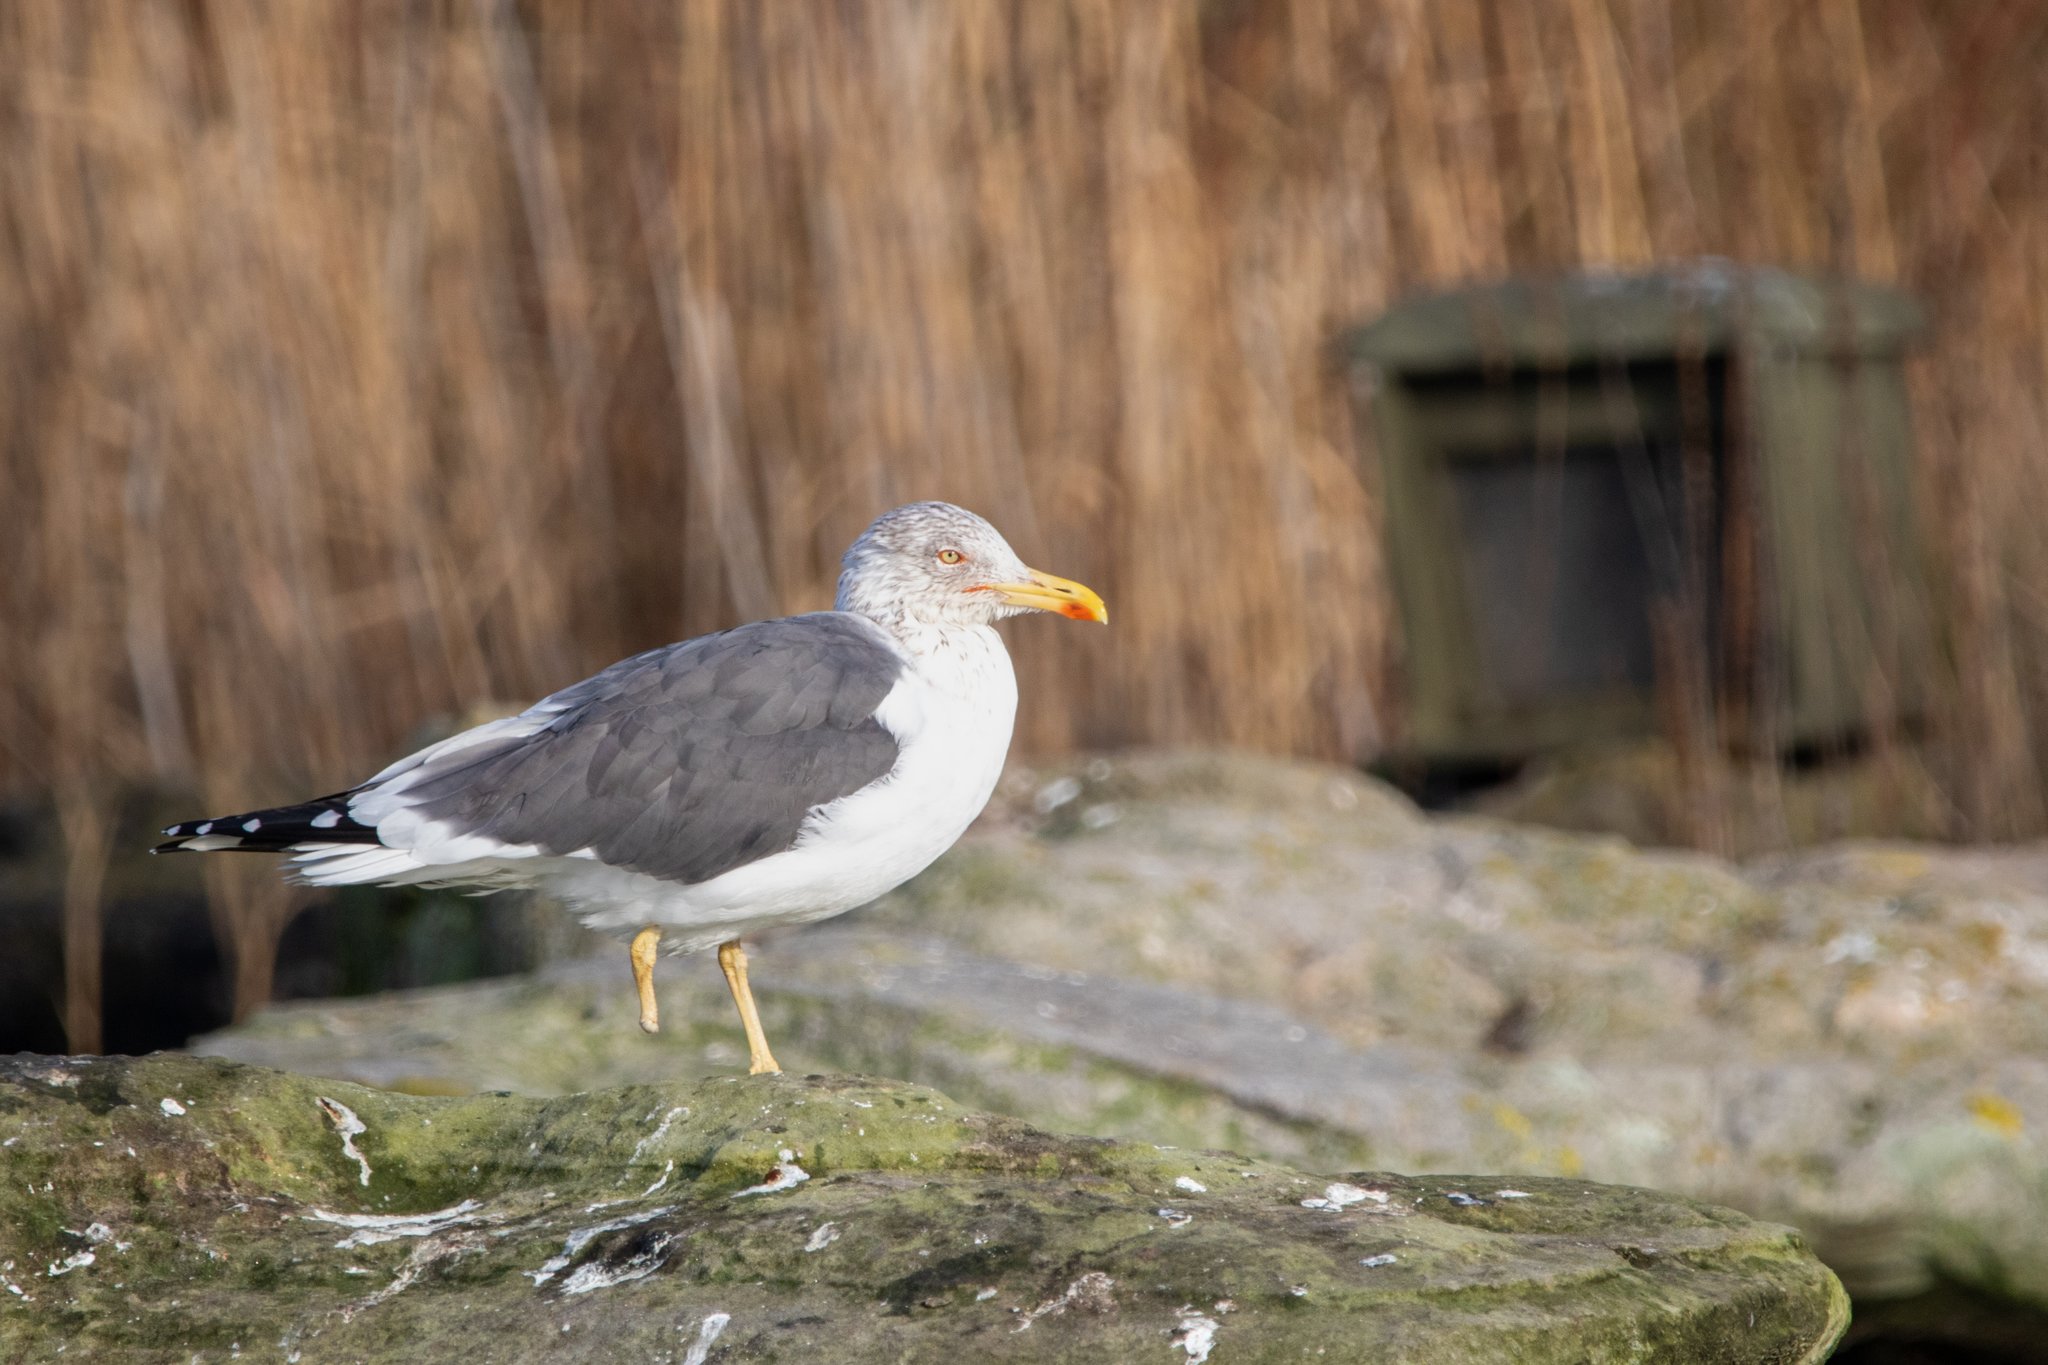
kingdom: Animalia
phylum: Chordata
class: Aves
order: Charadriiformes
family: Laridae
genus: Larus
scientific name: Larus michahellis
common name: Yellow-legged gull
